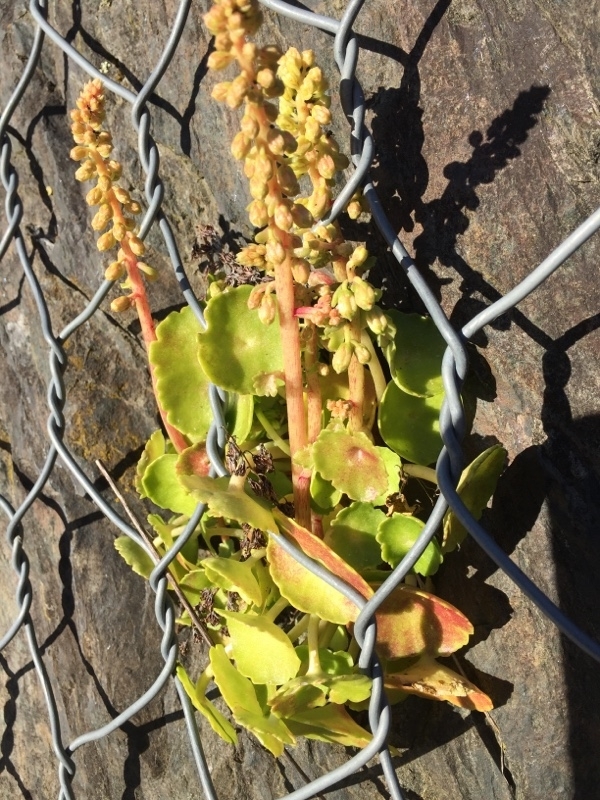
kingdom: Plantae
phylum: Tracheophyta
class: Magnoliopsida
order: Saxifragales
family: Crassulaceae
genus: Umbilicus
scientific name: Umbilicus rupestris
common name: Navelwort
